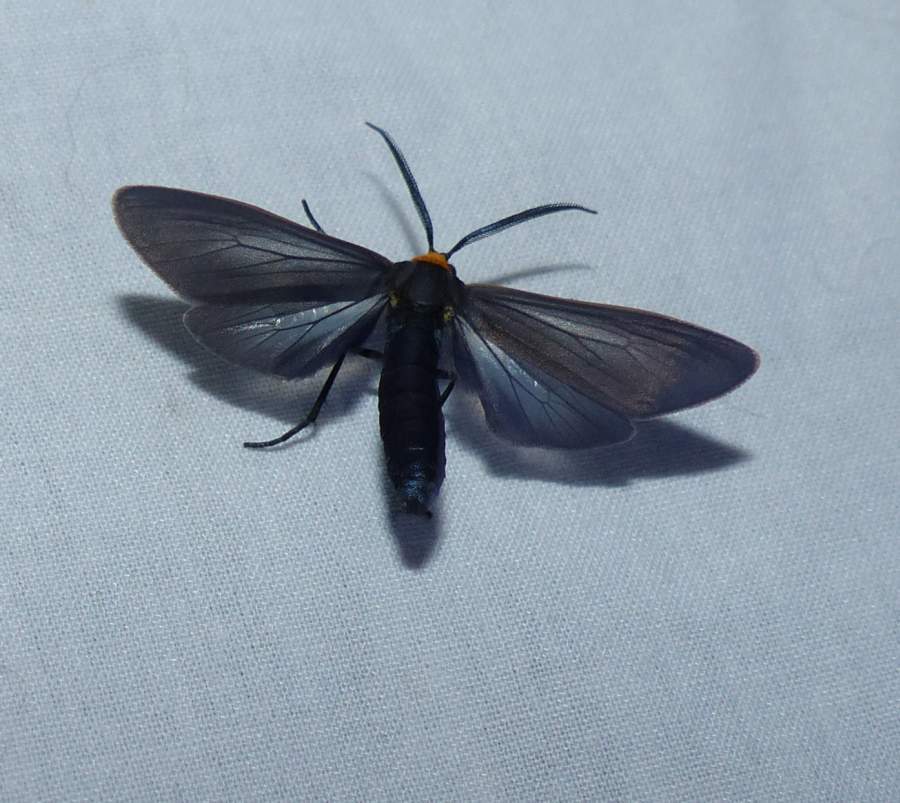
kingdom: Animalia
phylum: Arthropoda
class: Insecta
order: Lepidoptera
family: Erebidae
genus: Cisseps
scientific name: Cisseps fulvicollis
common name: Yellow-collared scape moth
